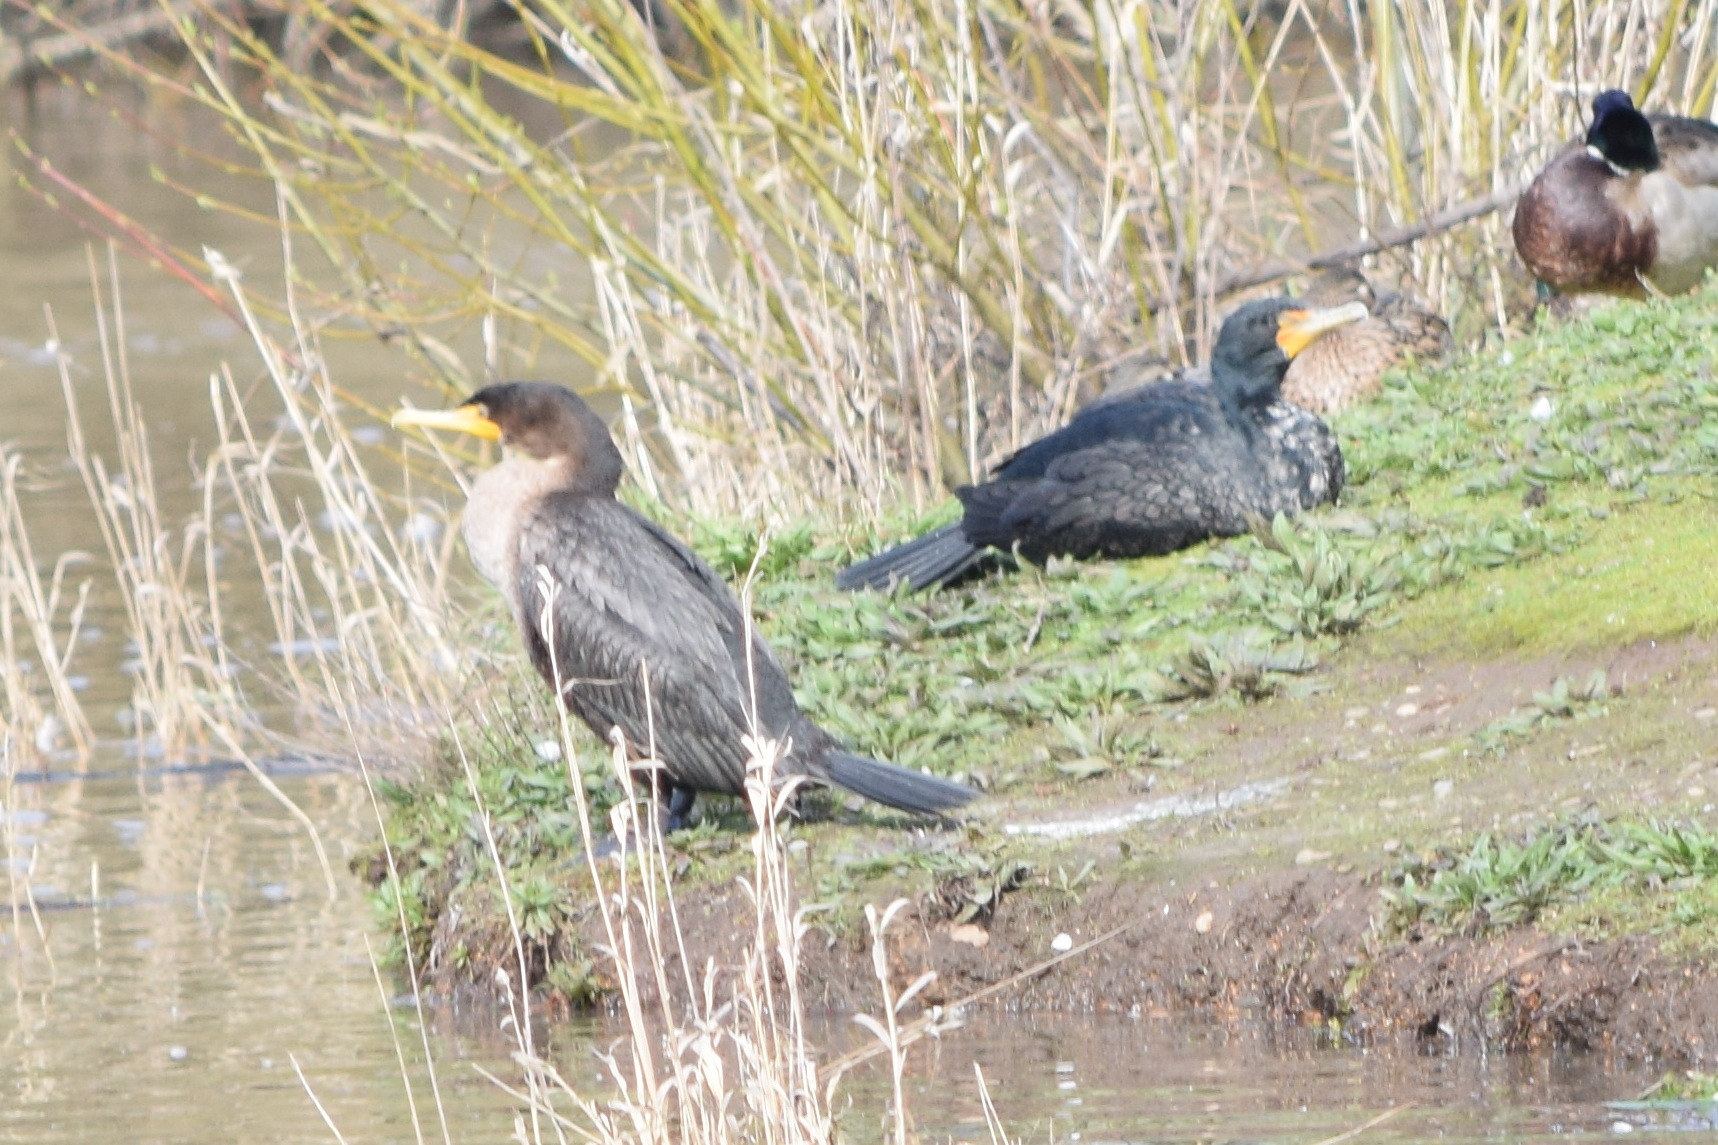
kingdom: Animalia
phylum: Chordata
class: Aves
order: Suliformes
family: Phalacrocoracidae
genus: Phalacrocorax
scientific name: Phalacrocorax auritus
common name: Double-crested cormorant
